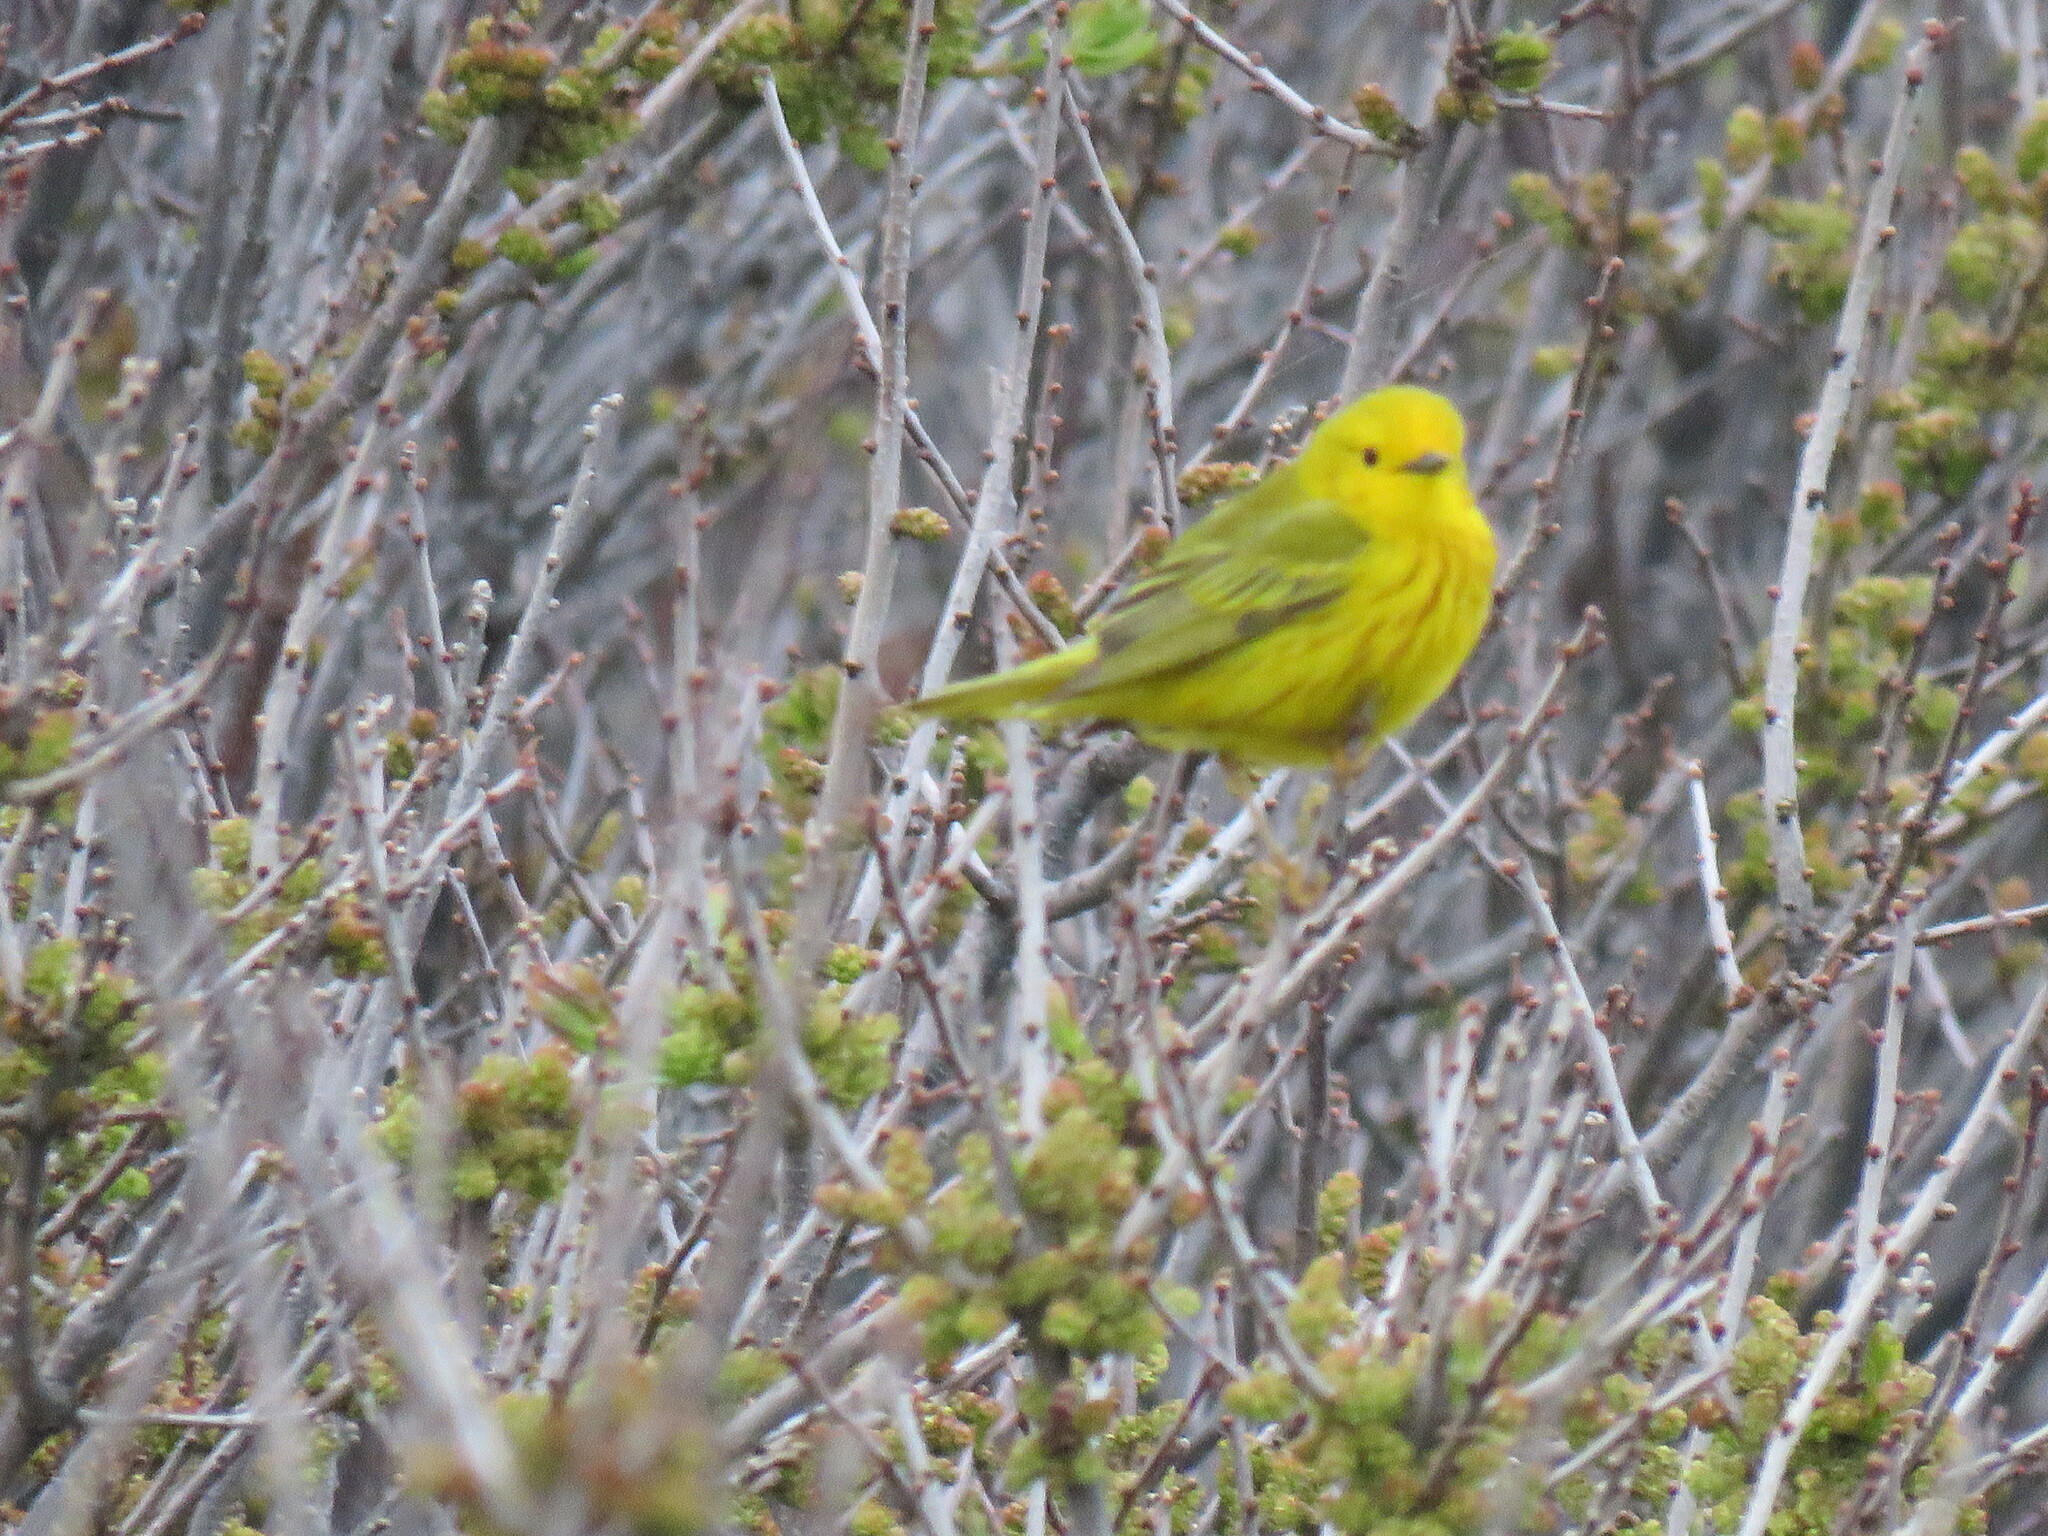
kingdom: Animalia
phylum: Chordata
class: Aves
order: Passeriformes
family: Parulidae
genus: Setophaga
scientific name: Setophaga petechia
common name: Yellow warbler
